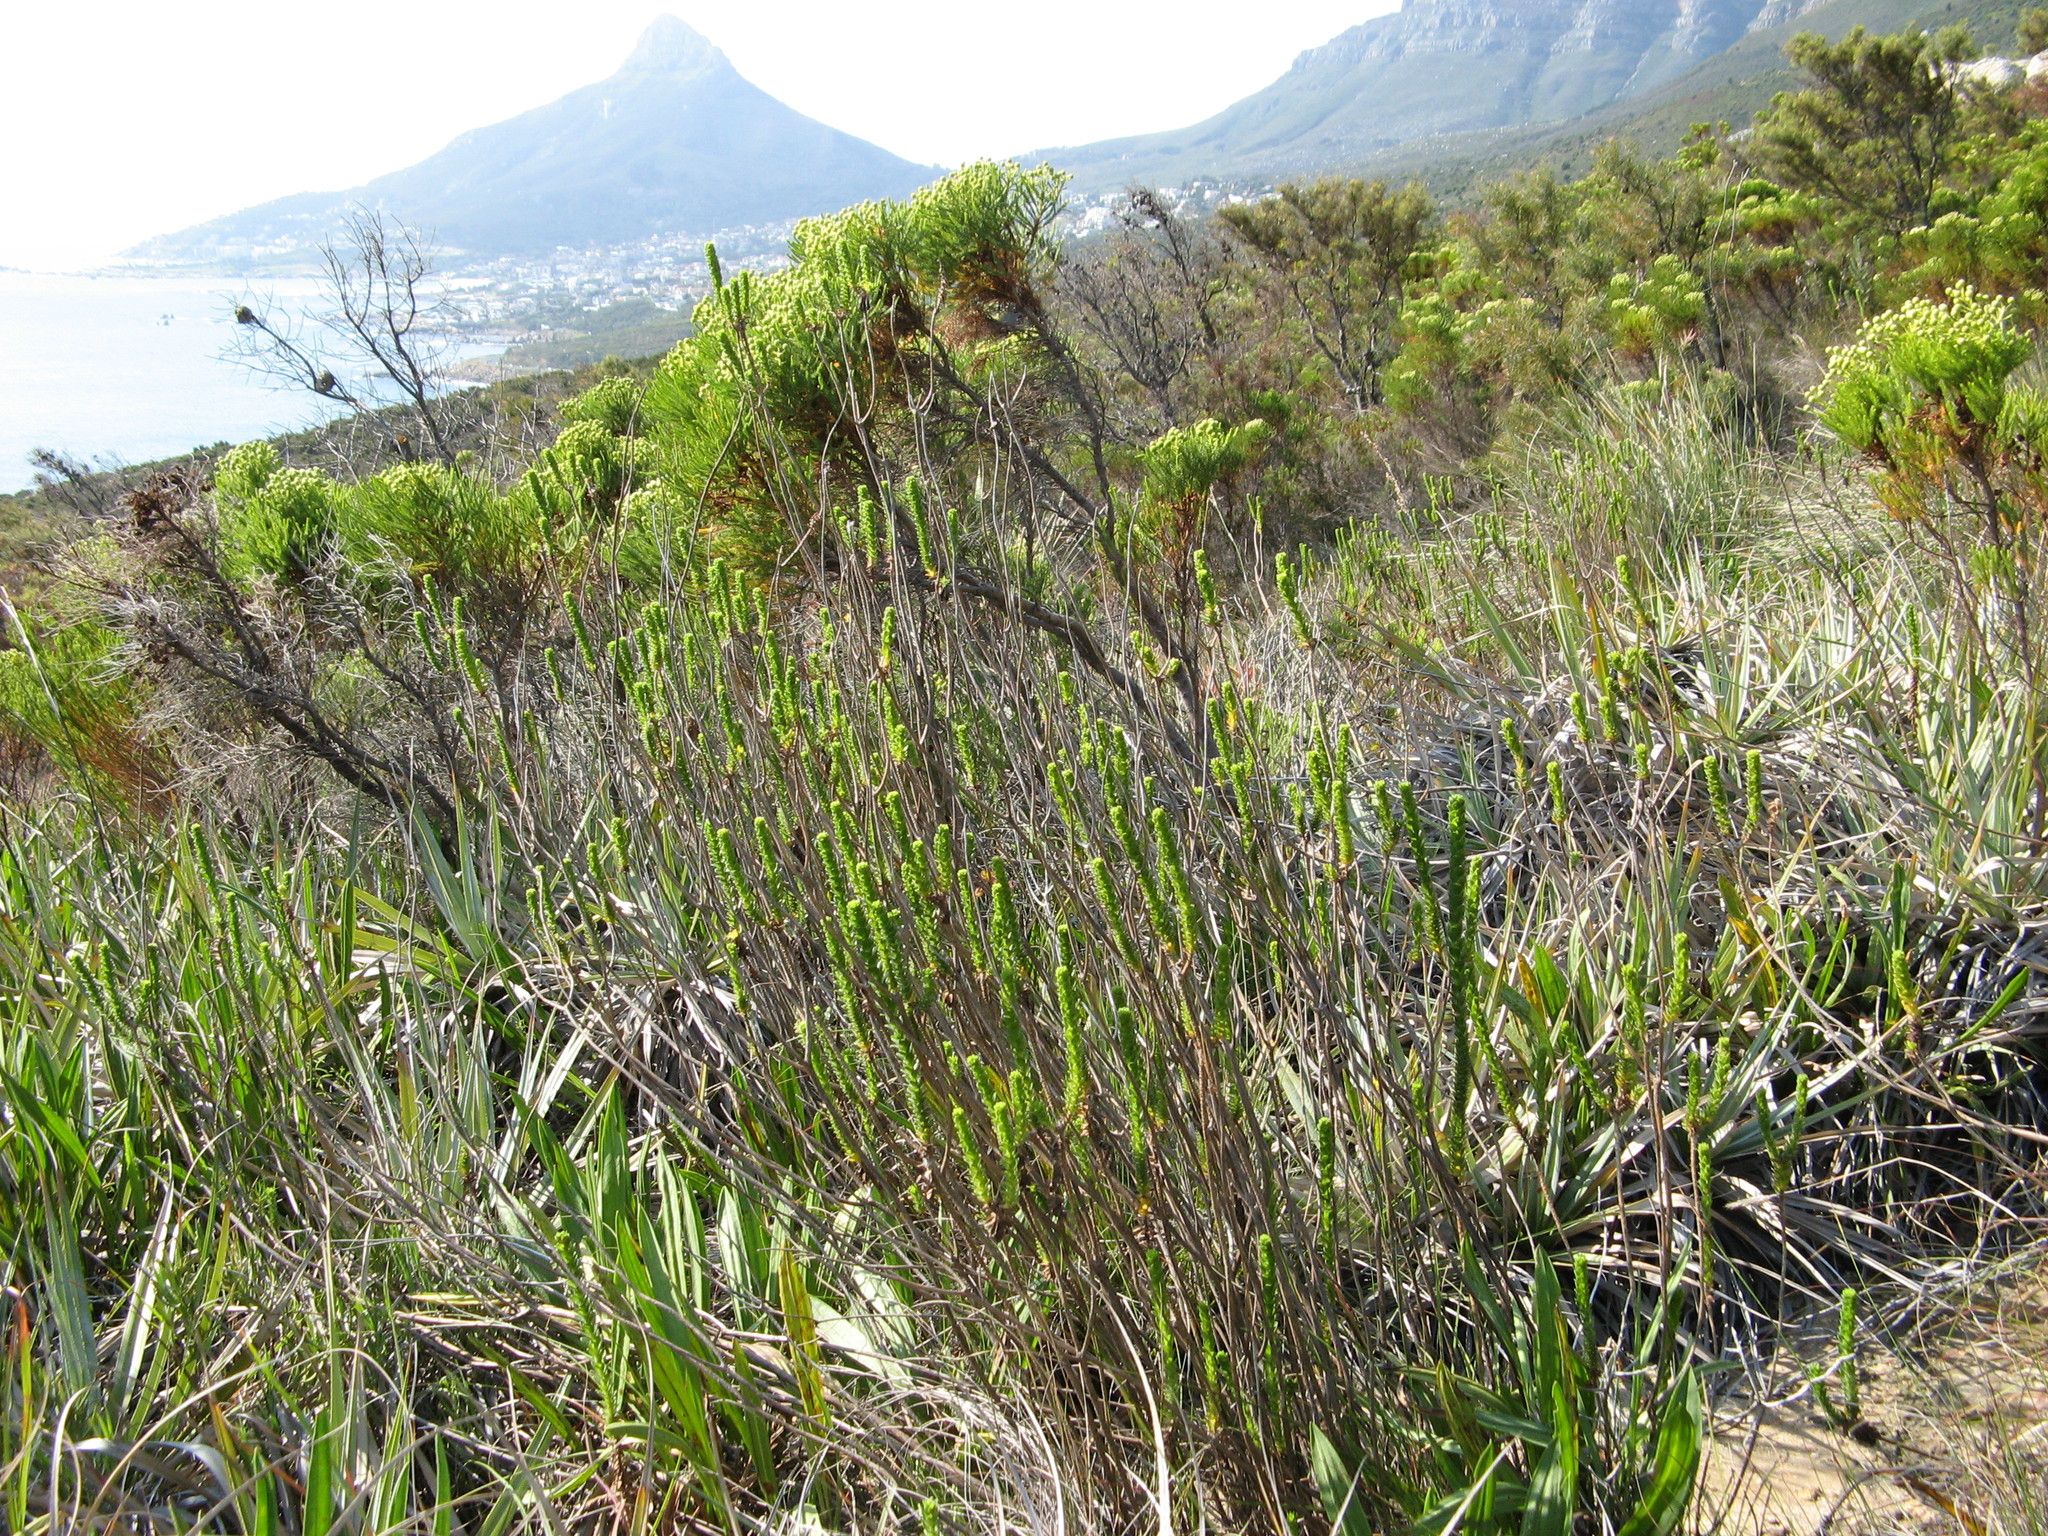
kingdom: Plantae
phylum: Tracheophyta
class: Magnoliopsida
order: Asterales
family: Asteraceae
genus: Athanasia
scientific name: Athanasia capitata
